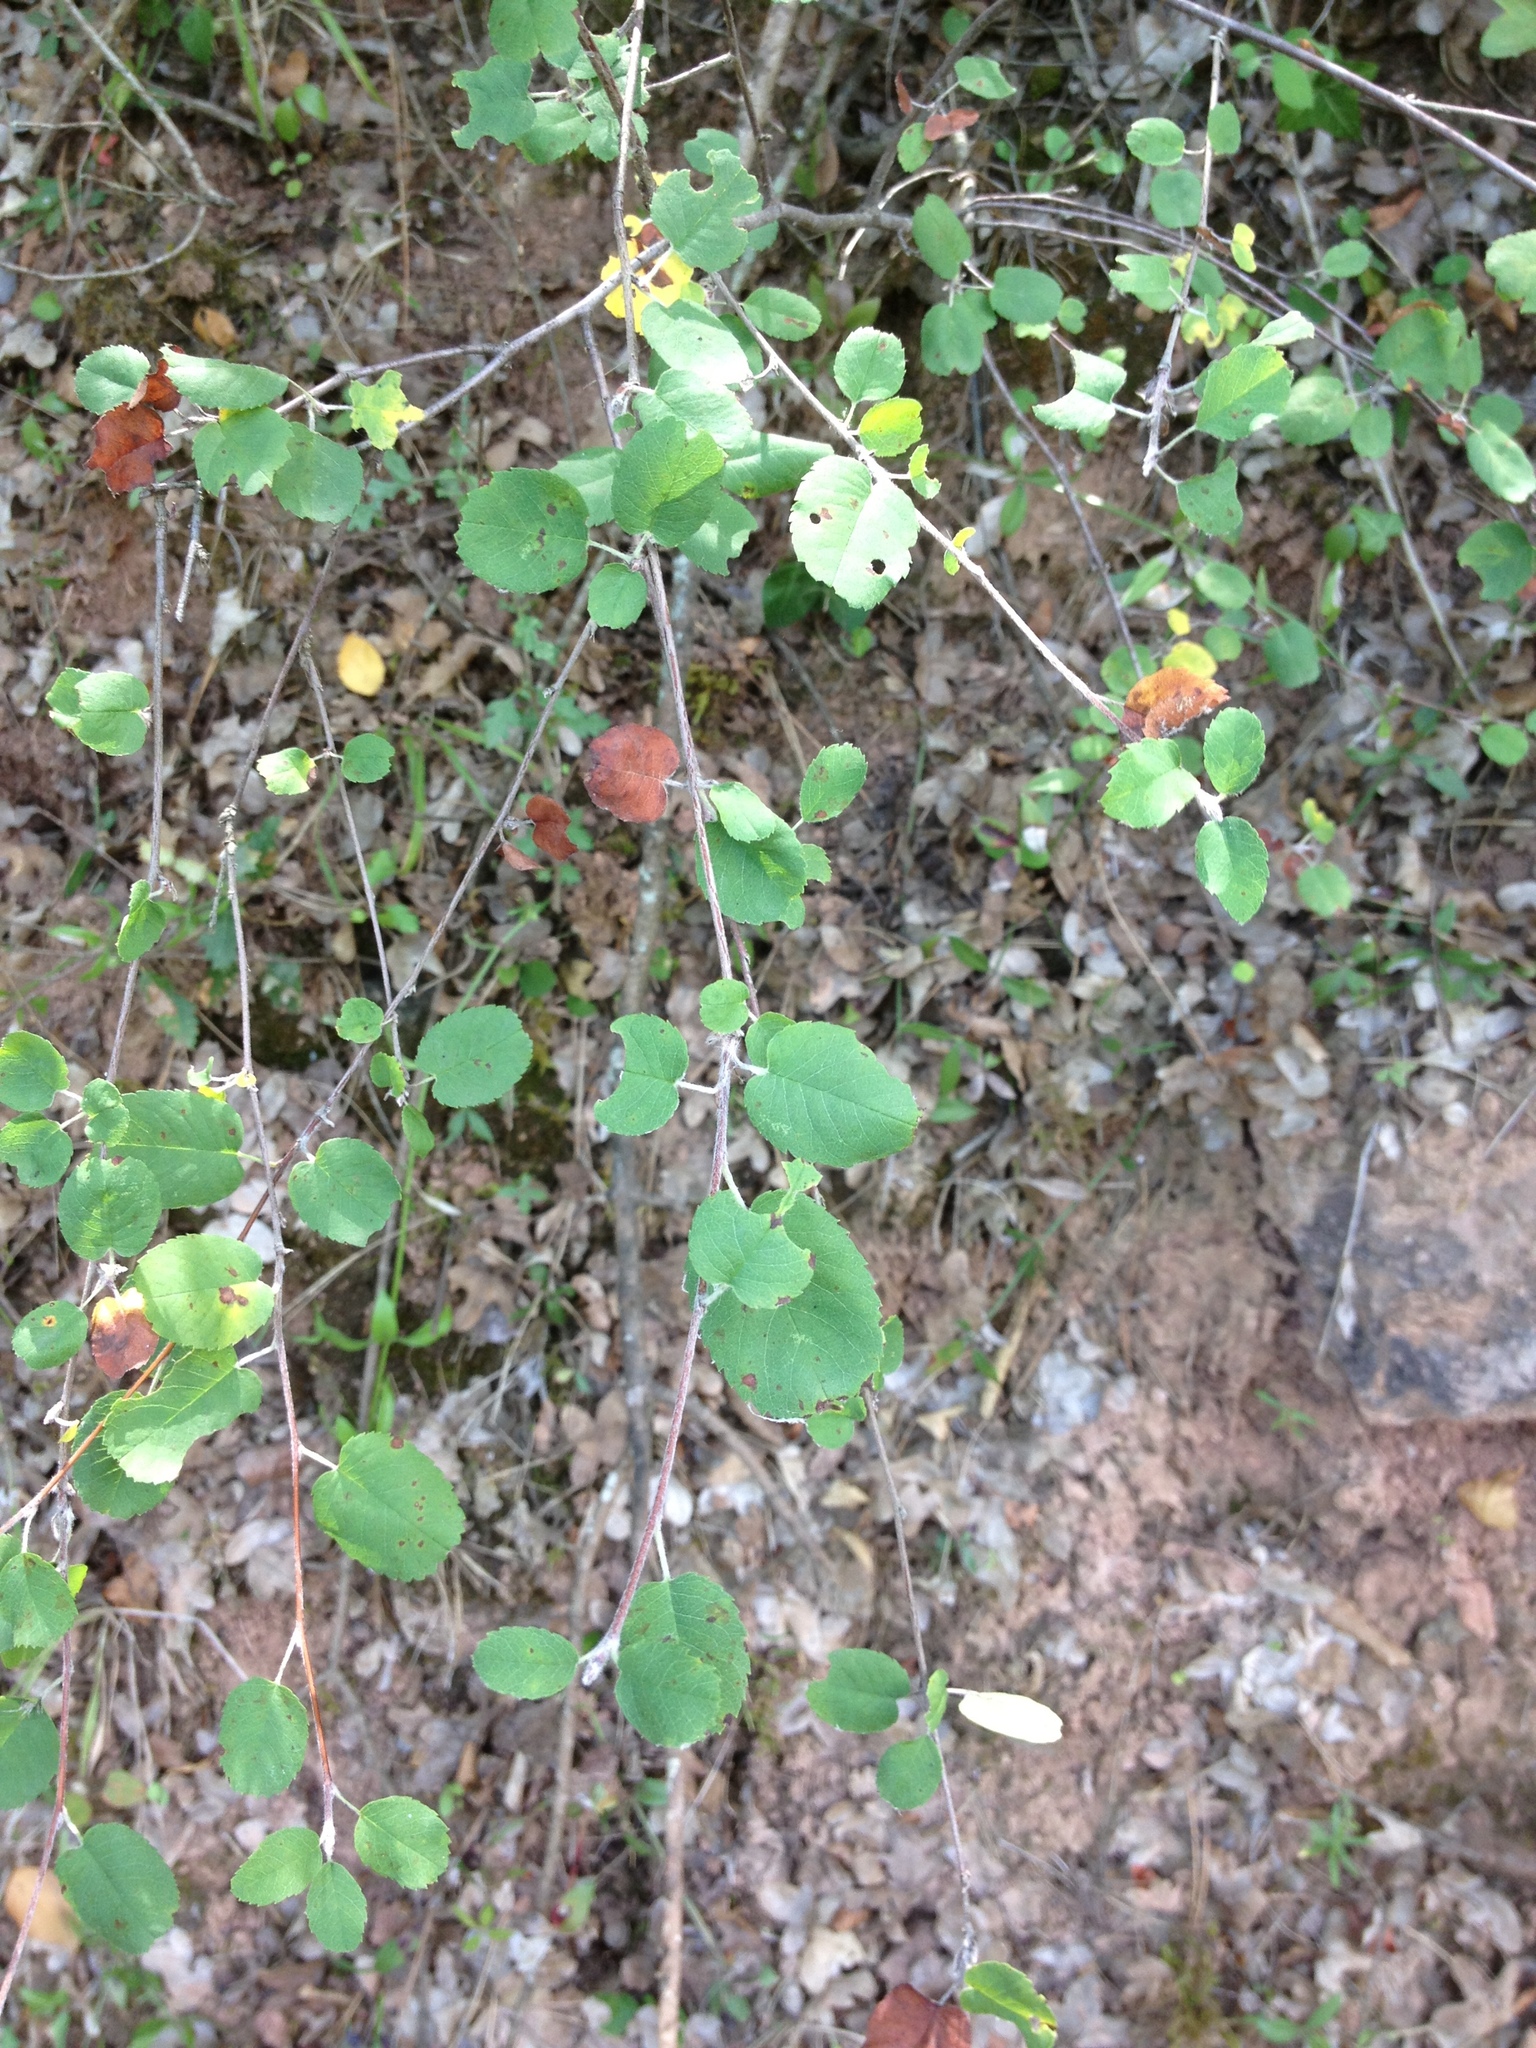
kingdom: Plantae
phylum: Tracheophyta
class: Magnoliopsida
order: Rosales
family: Rosaceae
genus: Amelanchier
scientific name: Amelanchier ovalis
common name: Serviceberry
